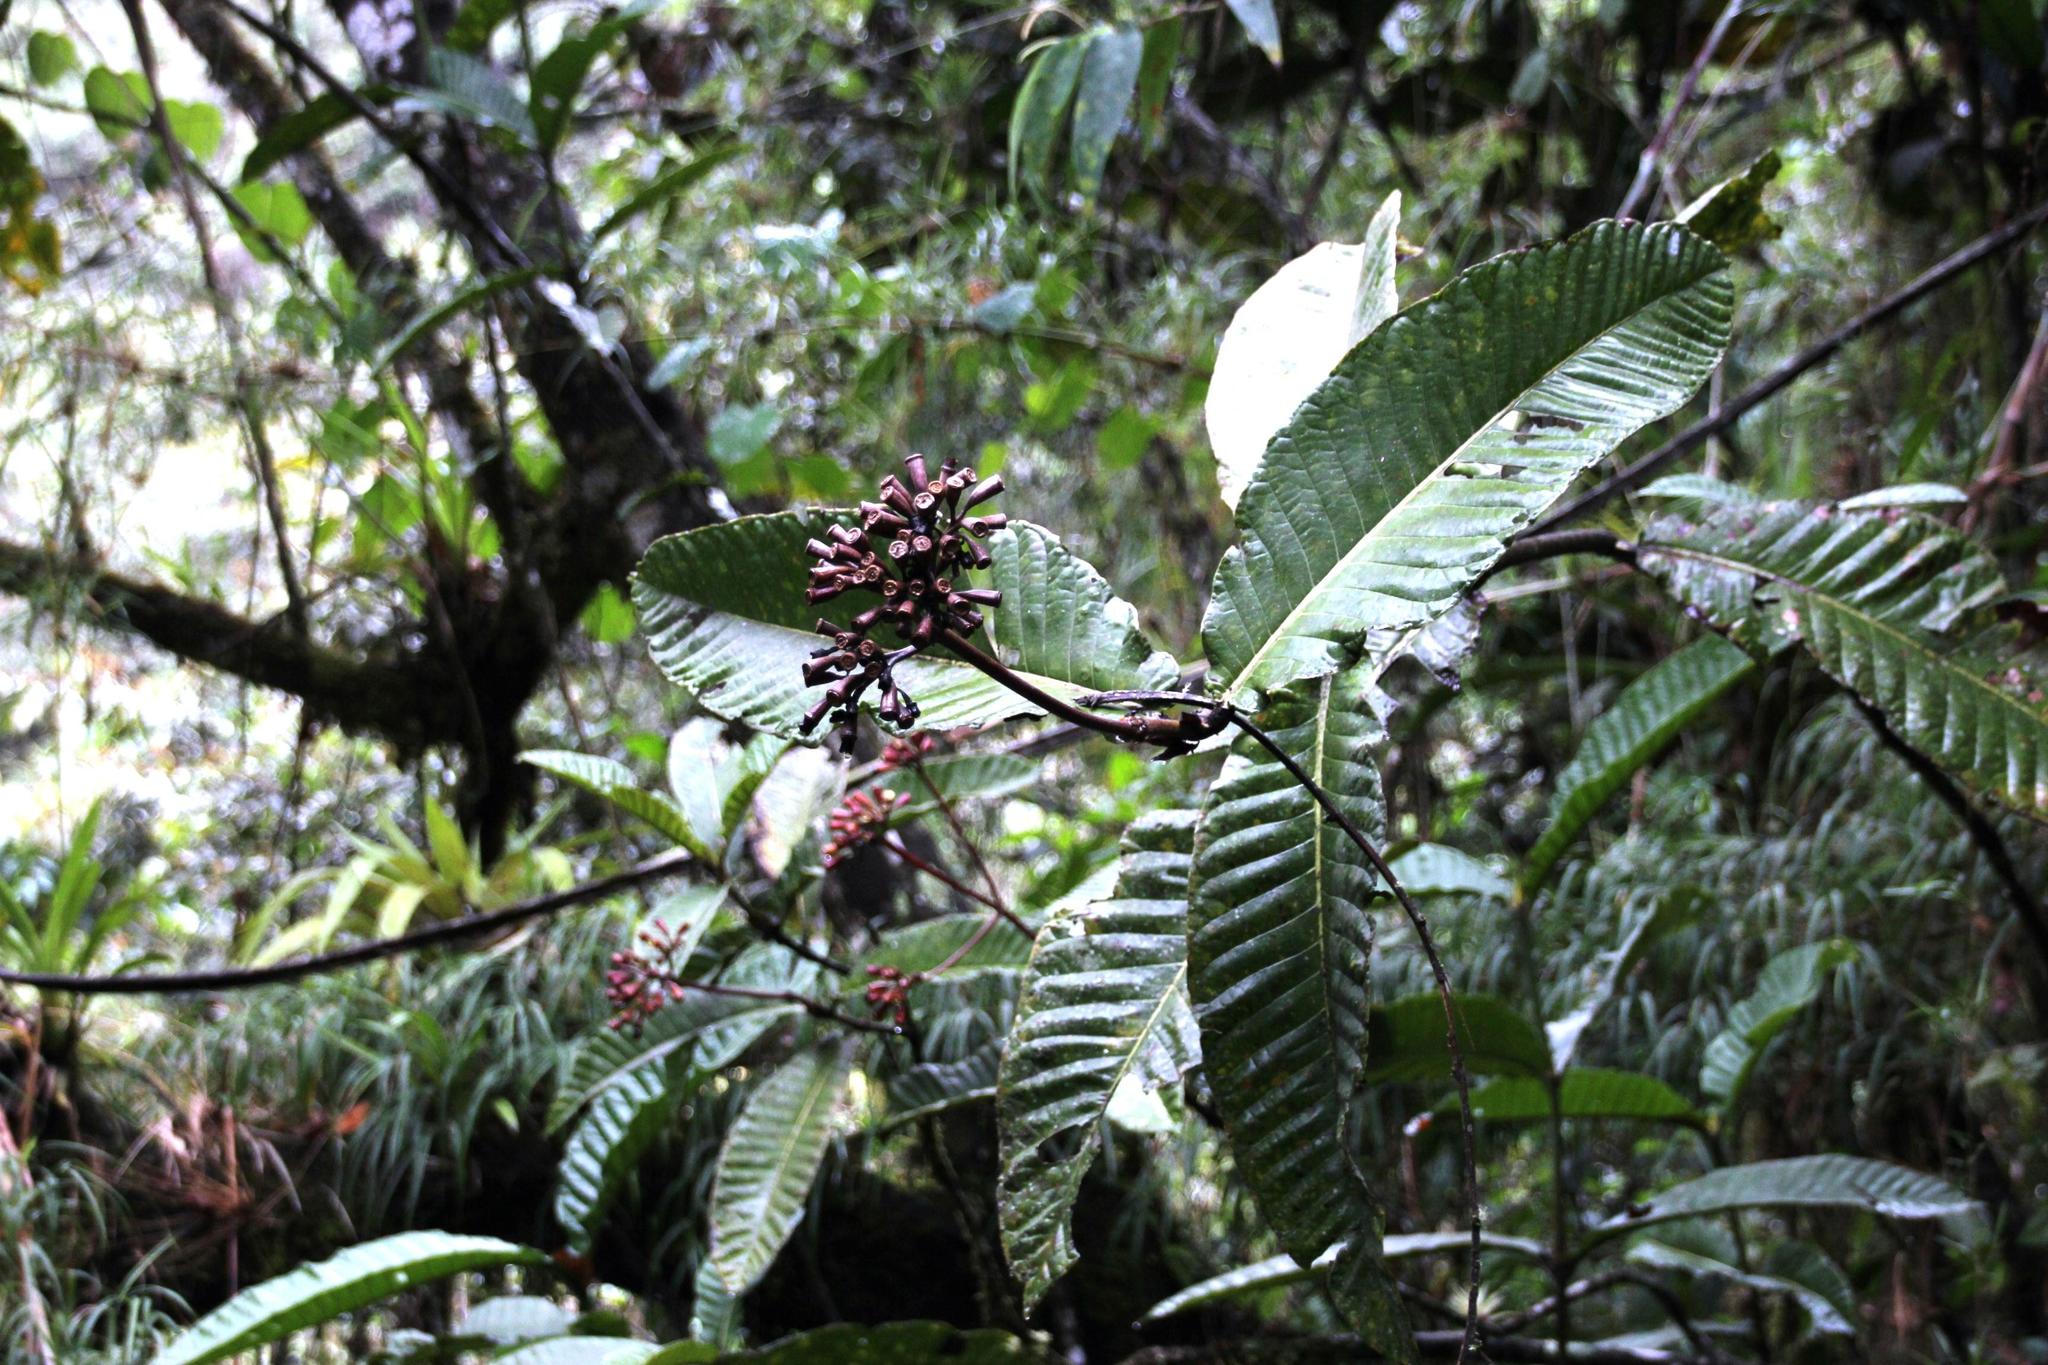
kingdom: Plantae
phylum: Tracheophyta
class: Magnoliopsida
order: Gentianales
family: Rubiaceae
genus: Condaminea
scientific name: Condaminea corymbosa
